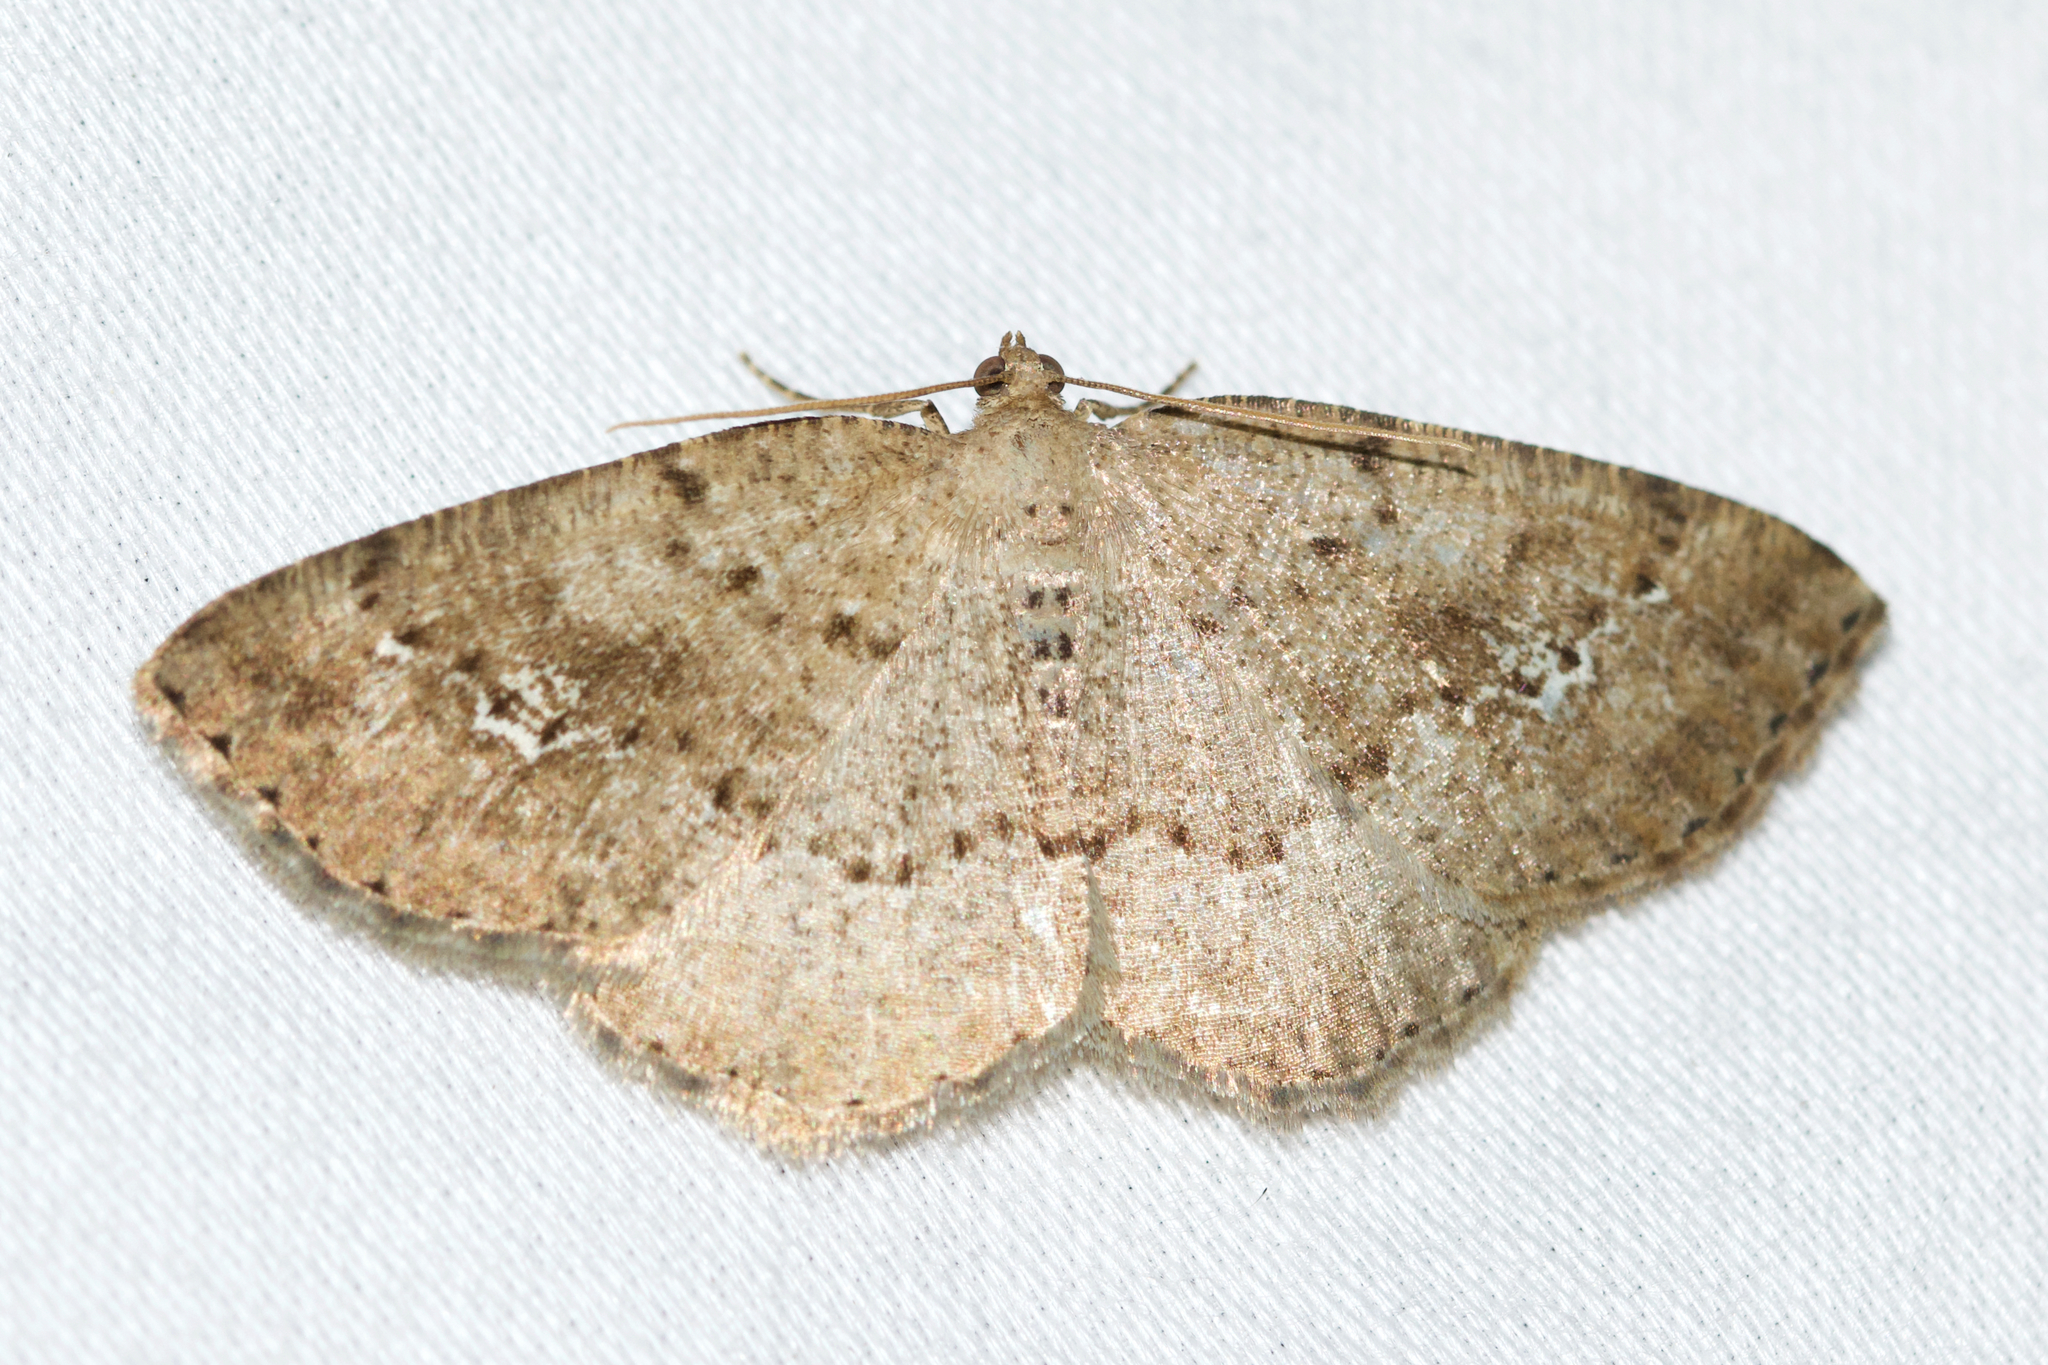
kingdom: Animalia
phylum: Arthropoda
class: Insecta
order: Lepidoptera
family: Geometridae
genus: Homochlodes
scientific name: Homochlodes fritillaria
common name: Pale homochlodes
